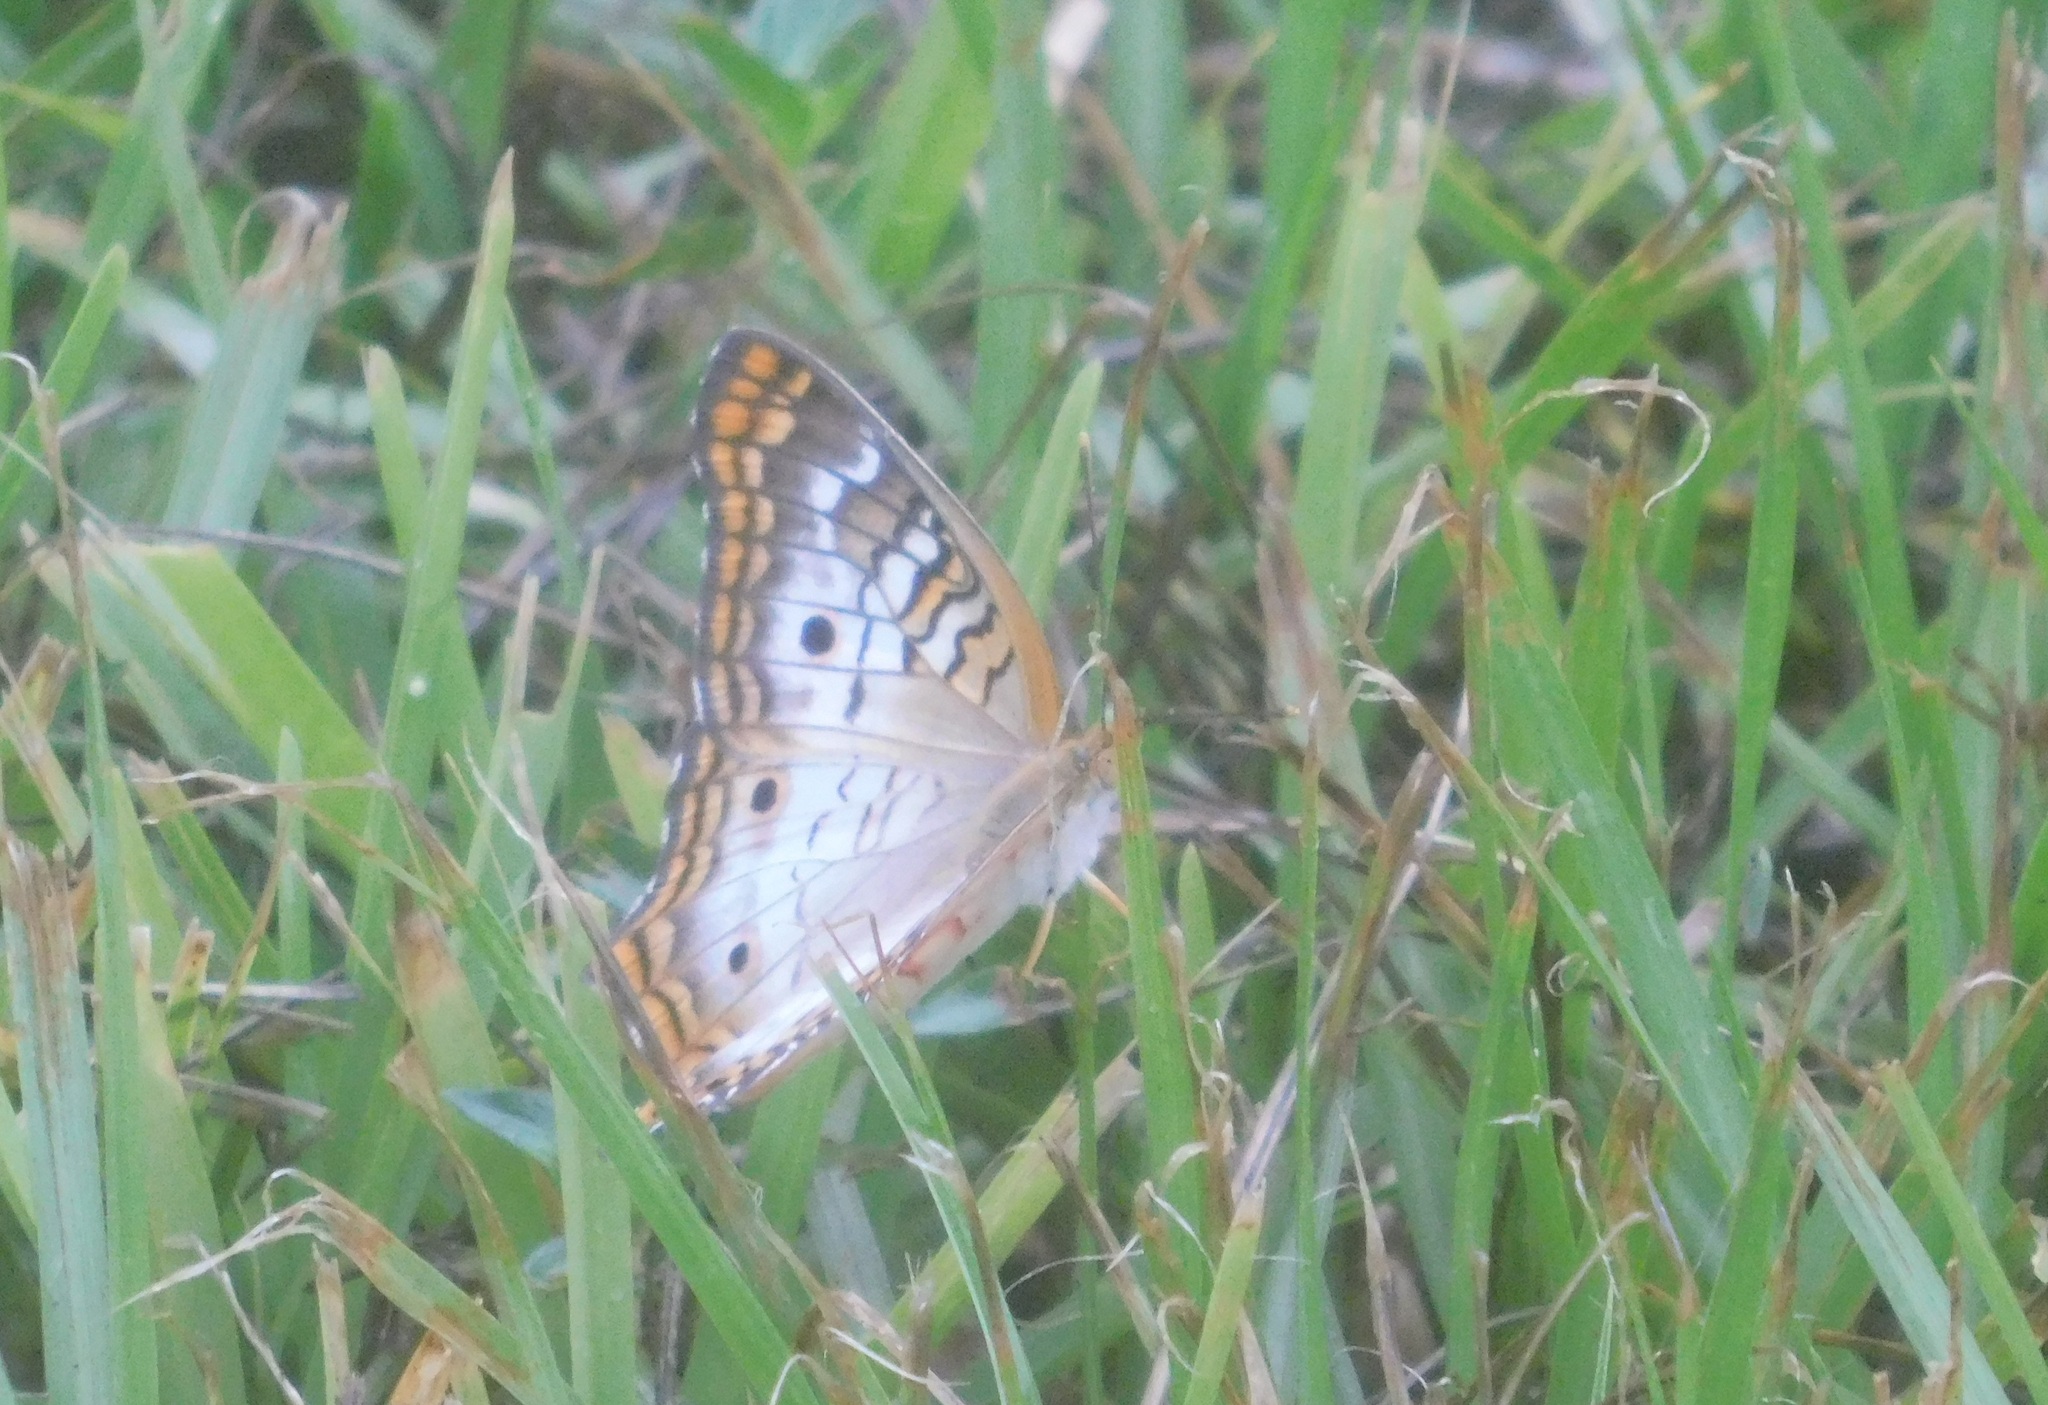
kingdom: Animalia
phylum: Arthropoda
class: Insecta
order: Lepidoptera
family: Nymphalidae
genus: Anartia
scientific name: Anartia jatrophae
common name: White peacock
